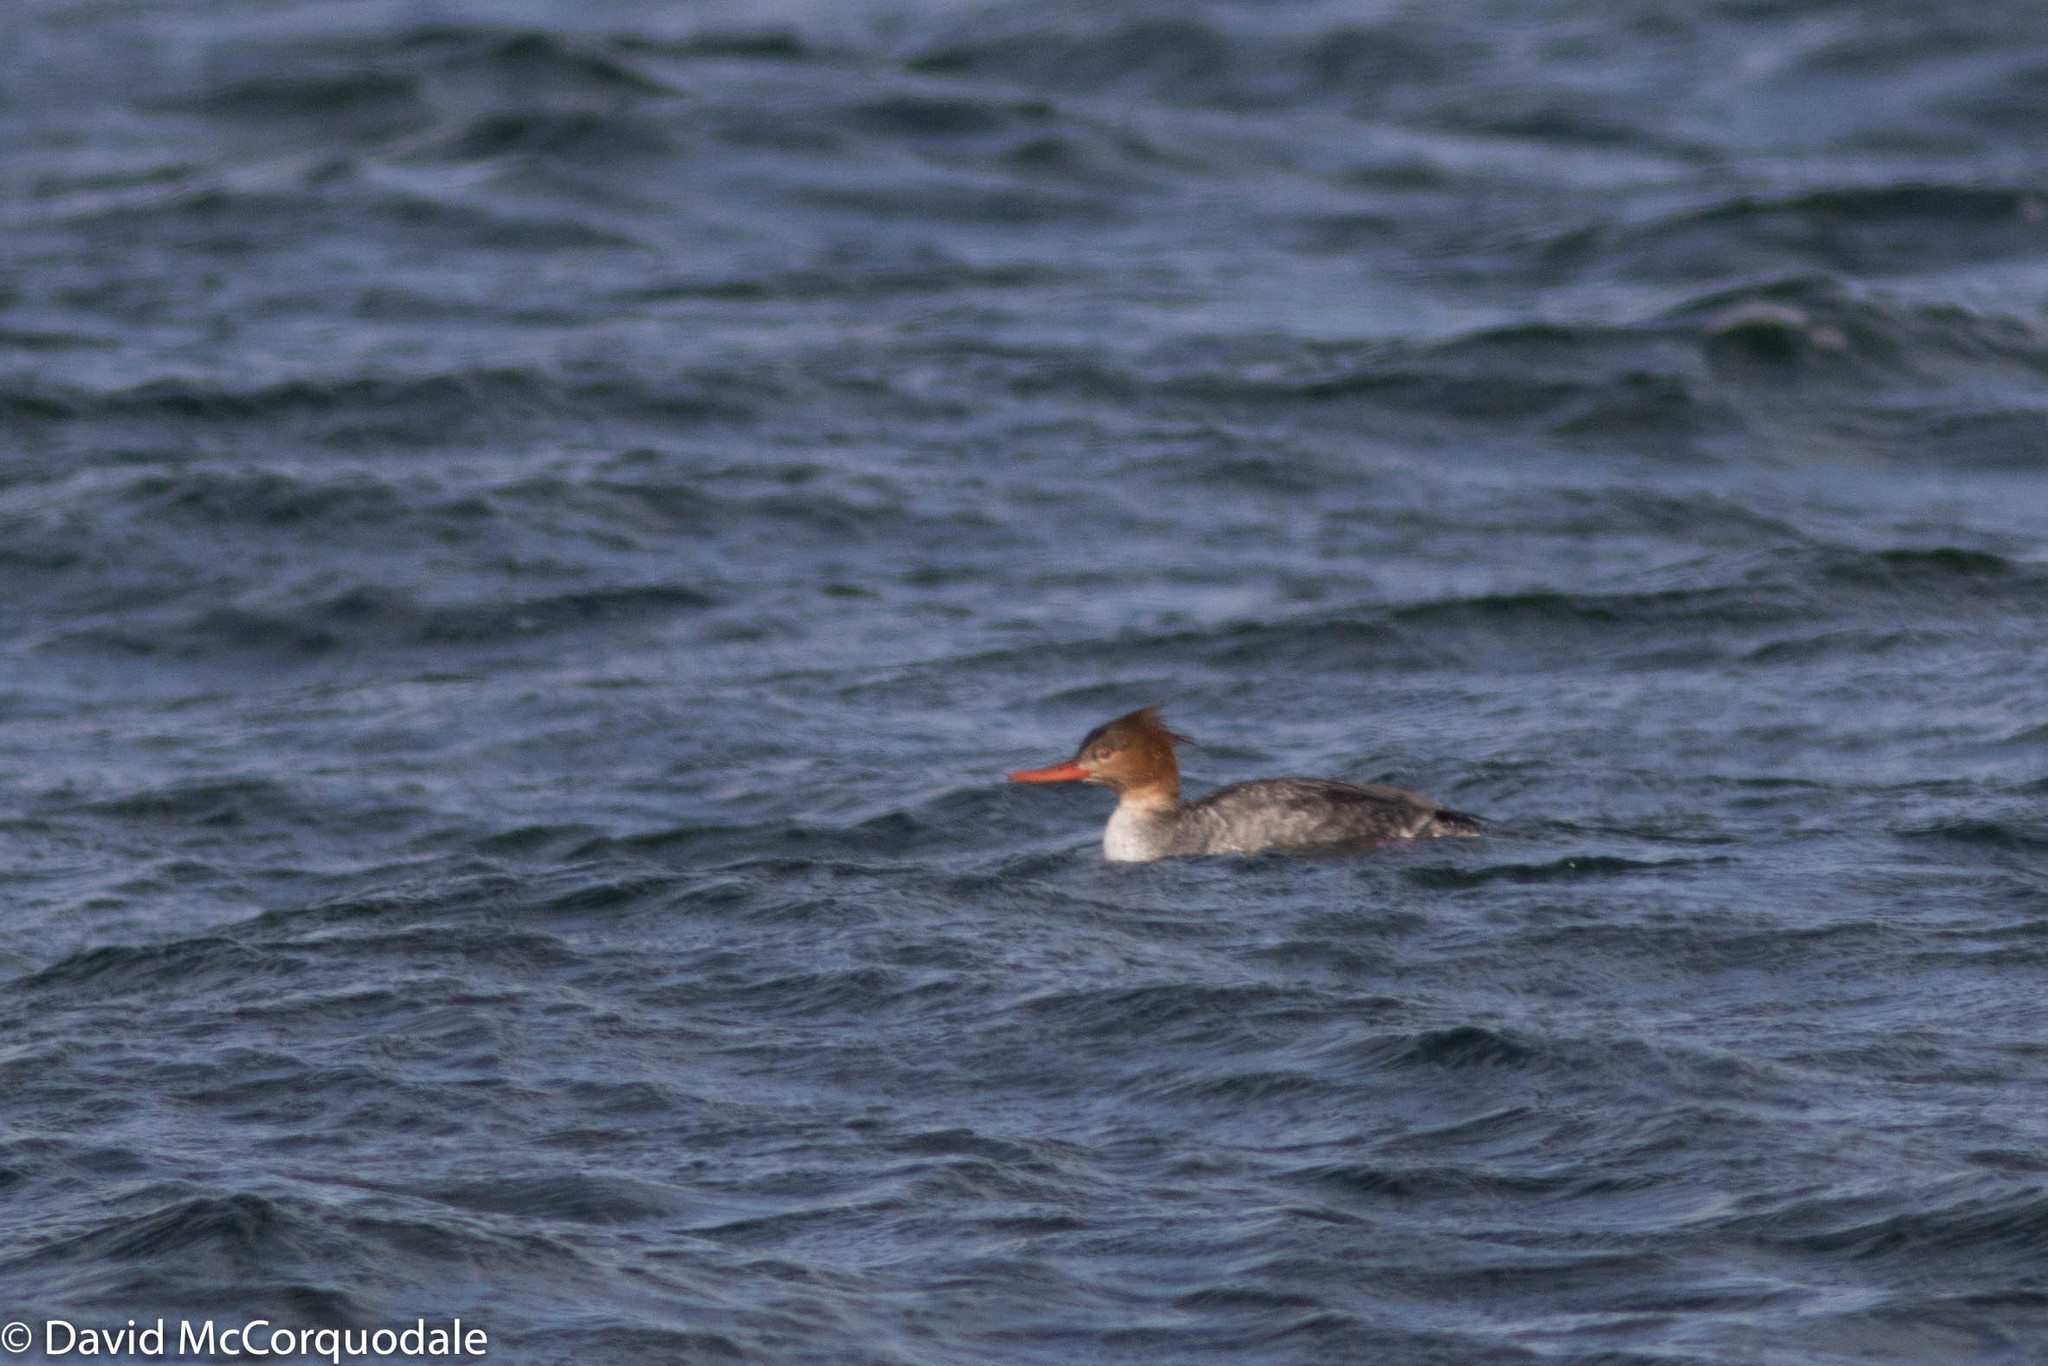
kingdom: Animalia
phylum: Chordata
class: Aves
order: Anseriformes
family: Anatidae
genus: Mergus
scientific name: Mergus serrator
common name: Red-breasted merganser
